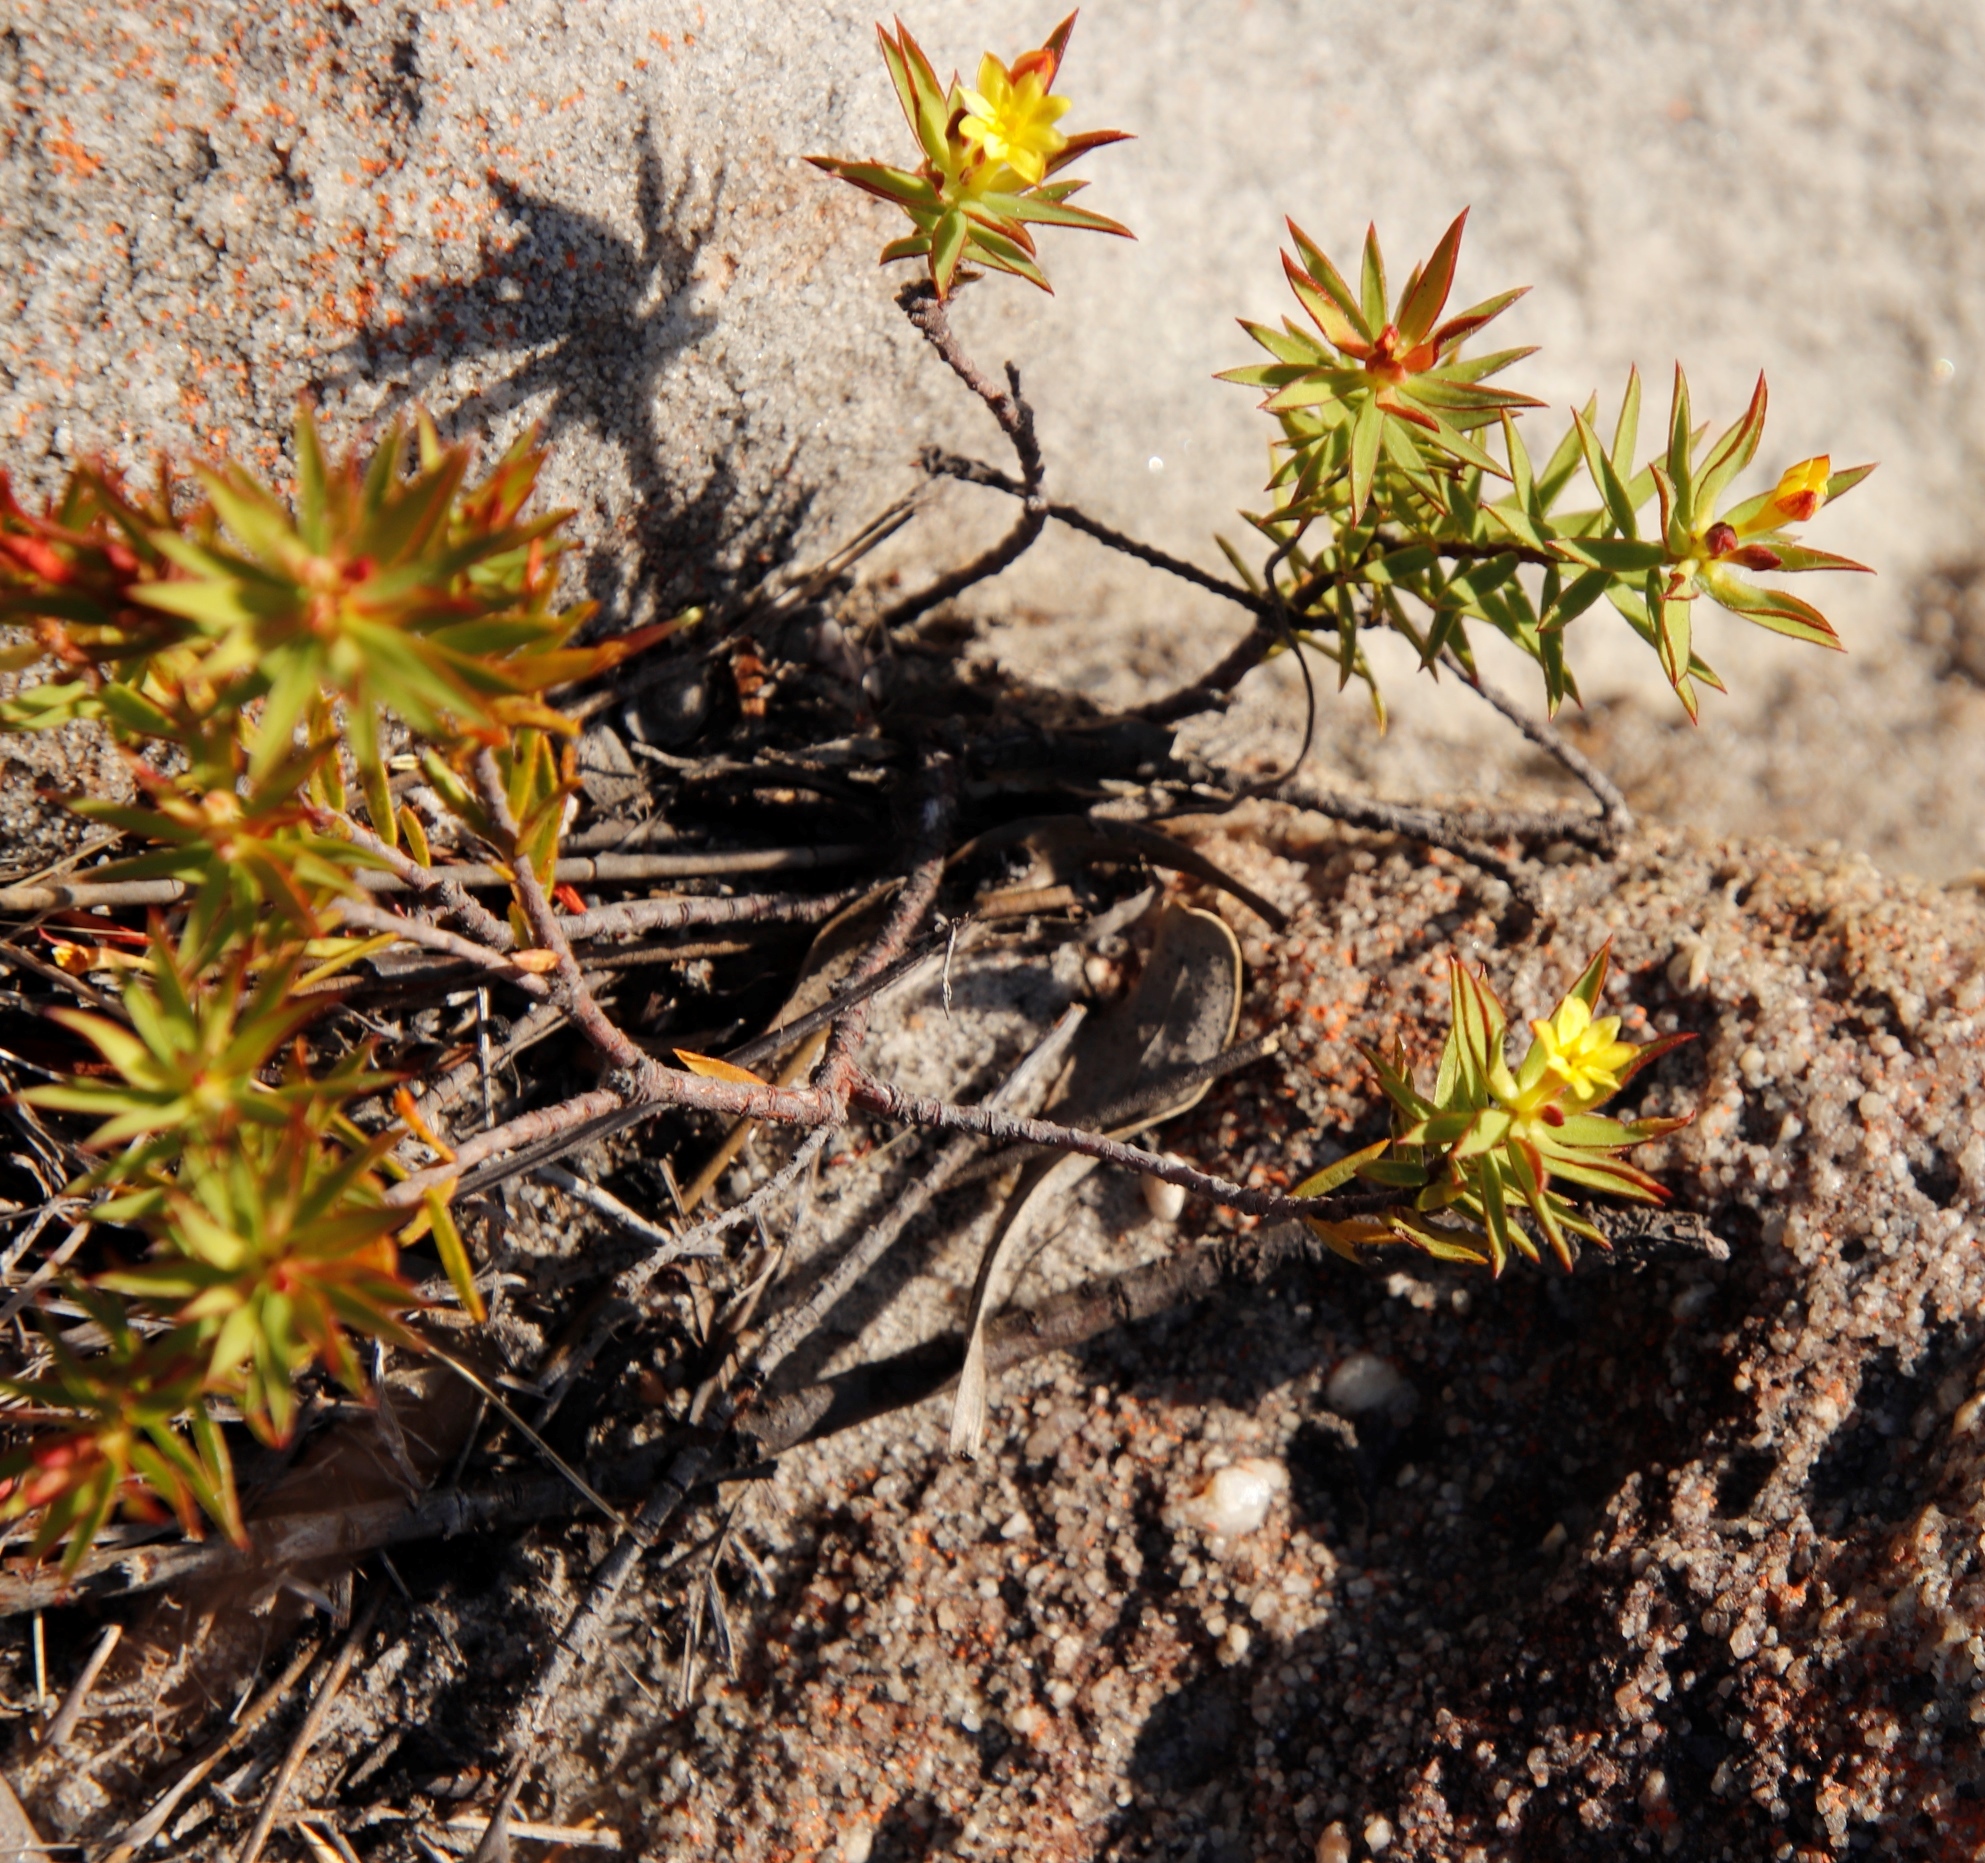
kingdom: Plantae
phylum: Tracheophyta
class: Magnoliopsida
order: Malvales
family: Thymelaeaceae
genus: Gnidia
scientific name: Gnidia juniperifolia
